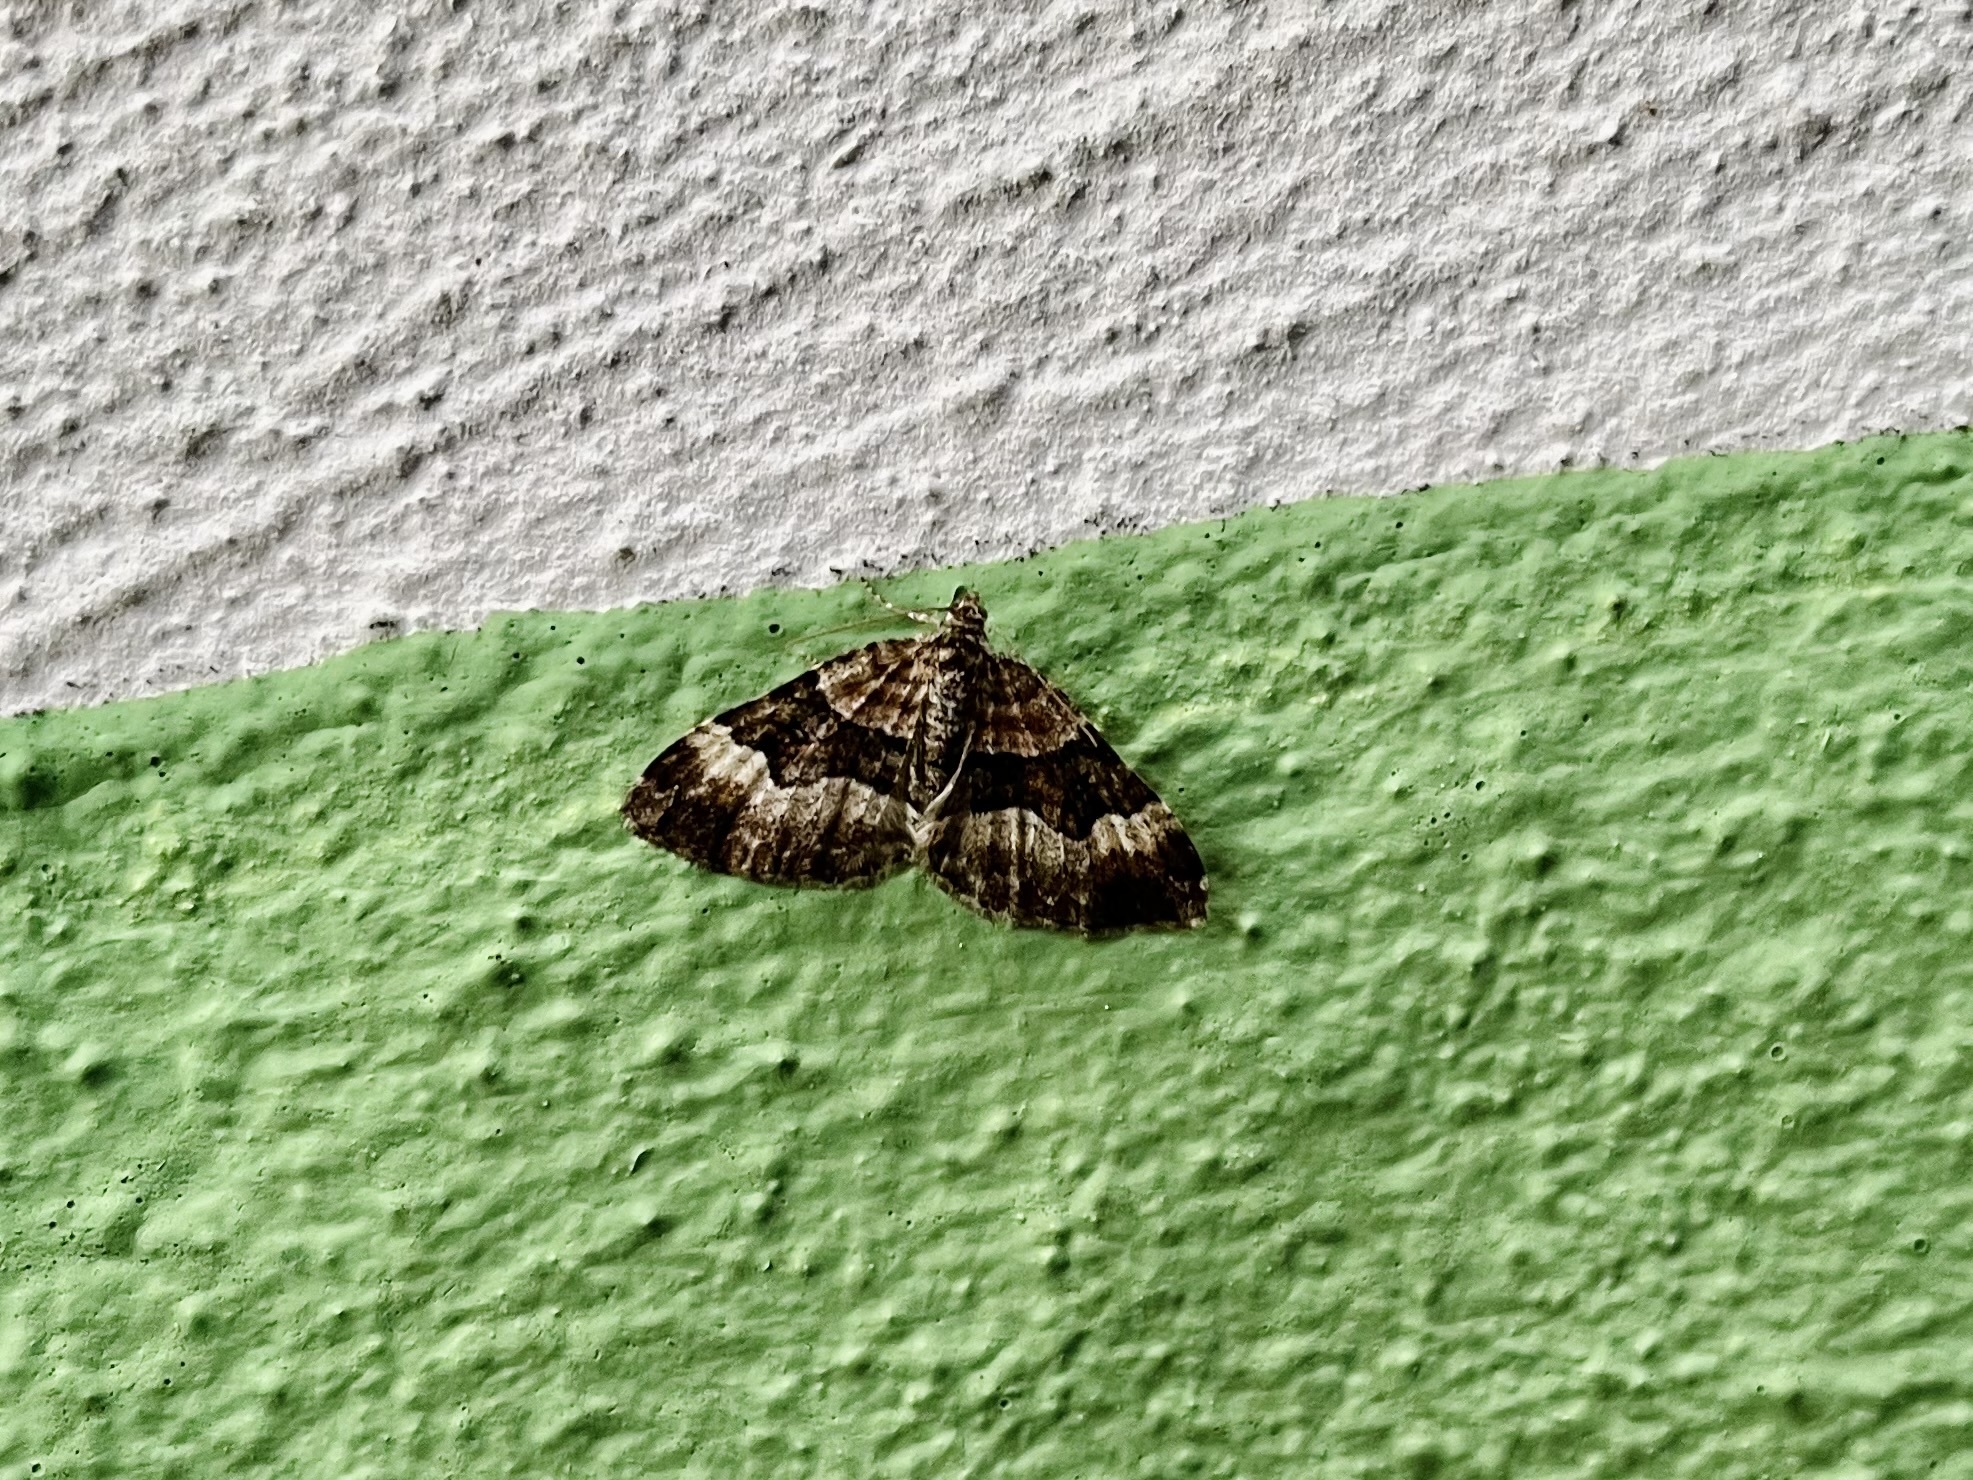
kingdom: Animalia
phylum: Arthropoda
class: Insecta
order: Lepidoptera
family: Geometridae
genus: Xanthorhoe
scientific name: Xanthorhoe biriviata
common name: Balsam carpet
